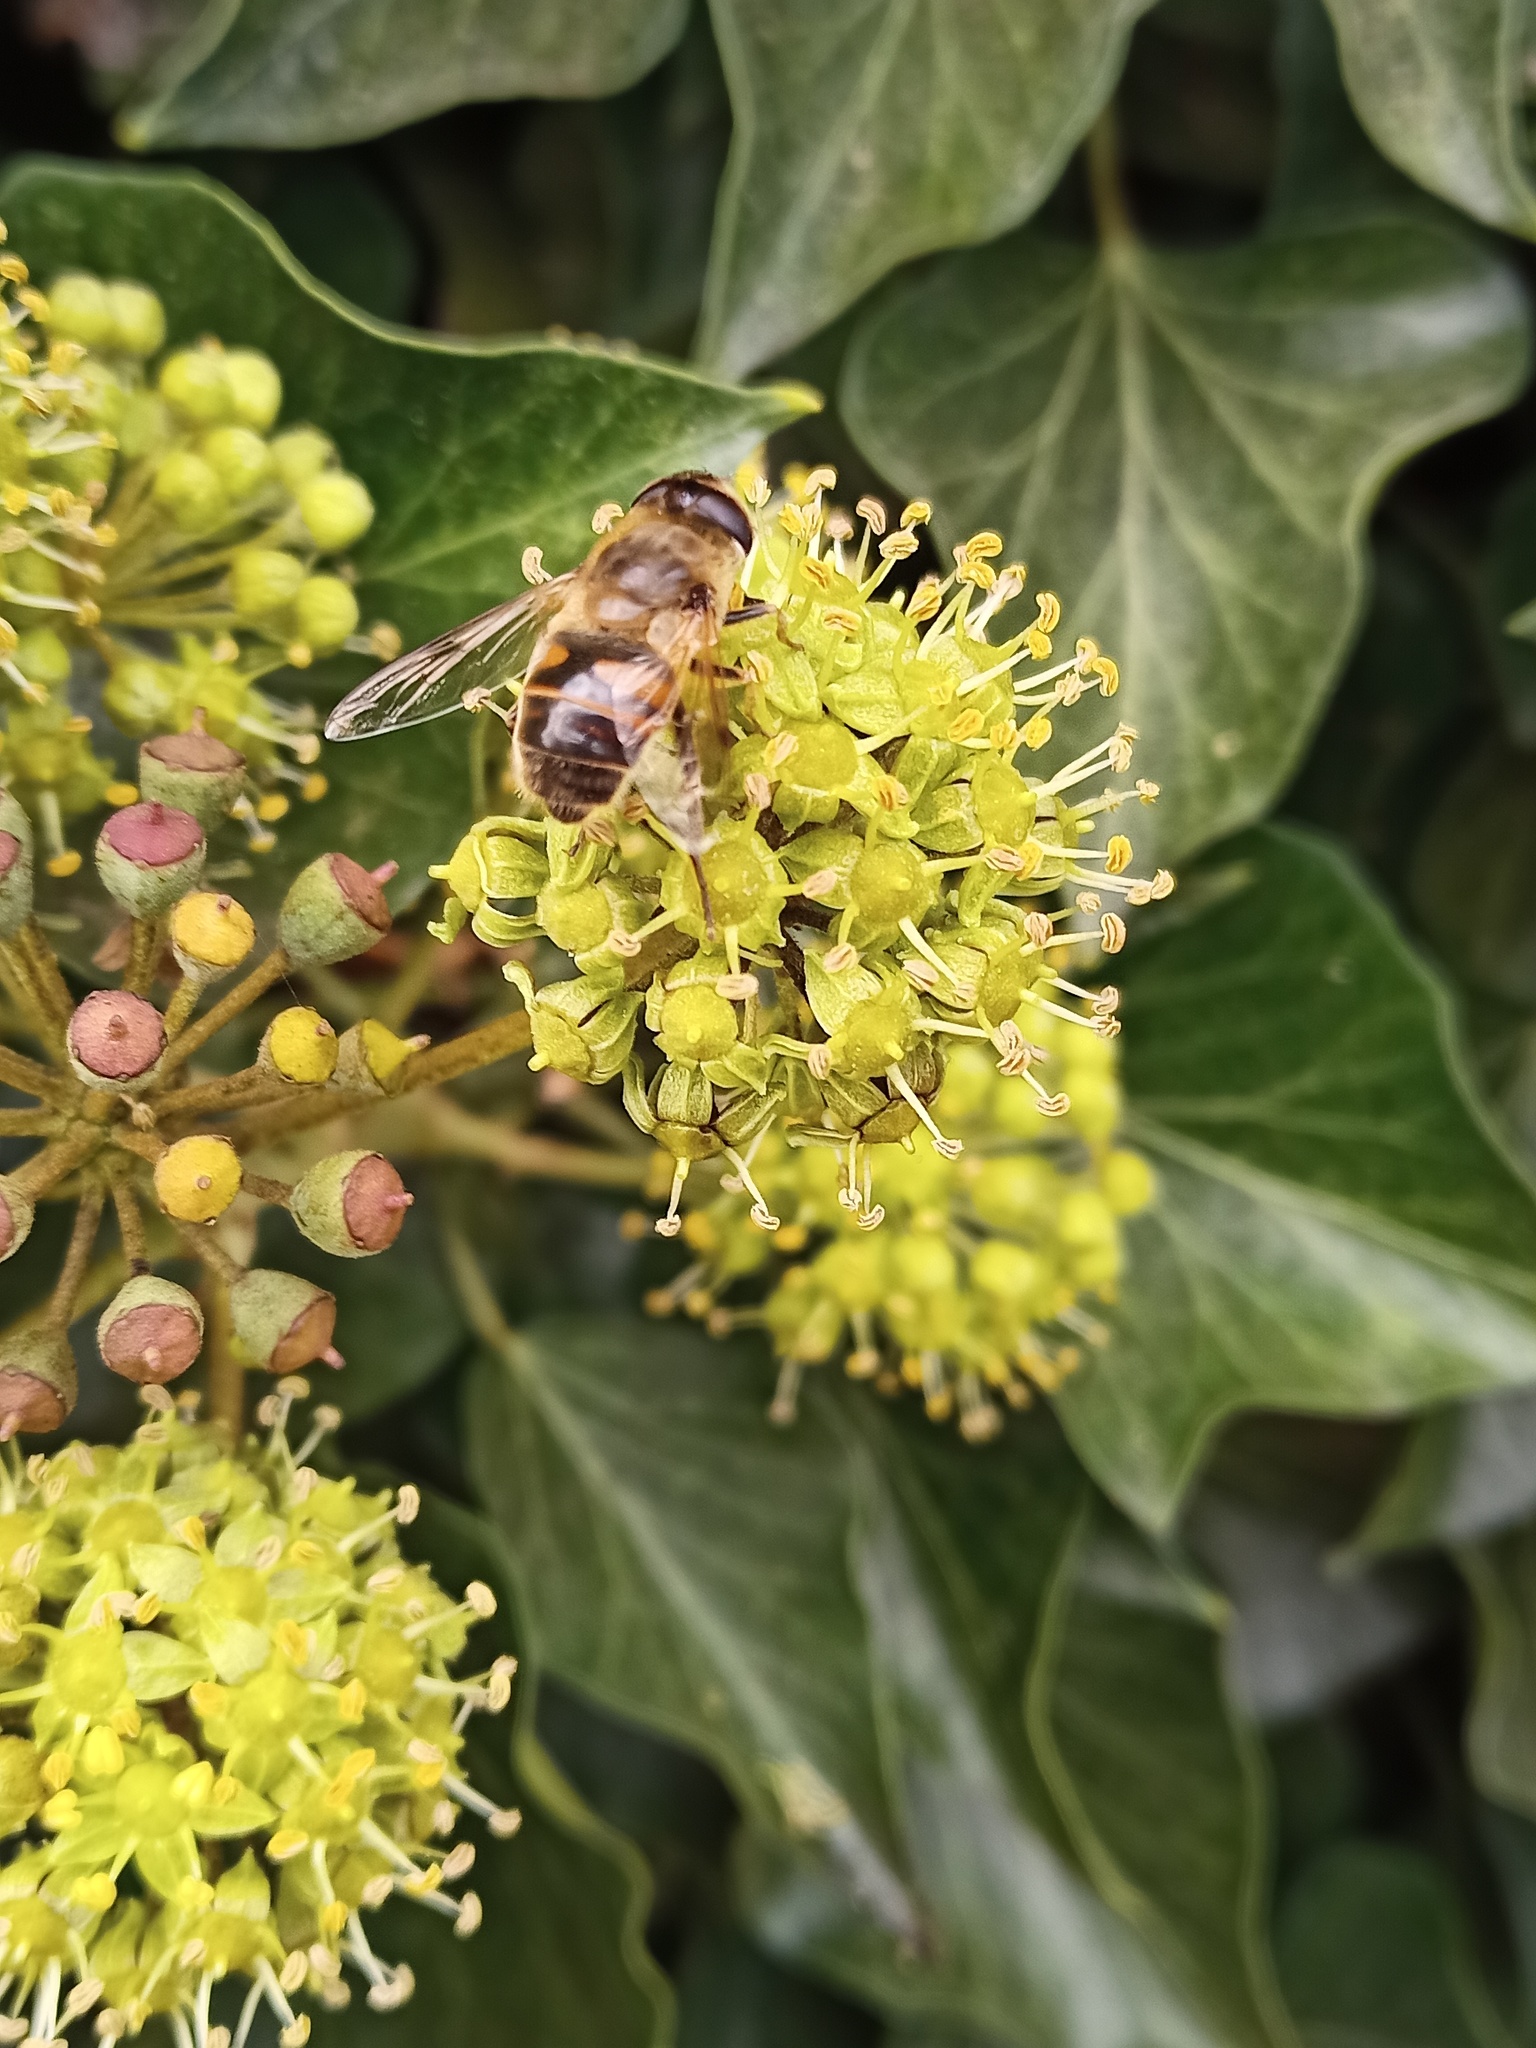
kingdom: Animalia
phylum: Arthropoda
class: Insecta
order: Diptera
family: Syrphidae
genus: Eristalis
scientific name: Eristalis tenax
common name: Drone fly
